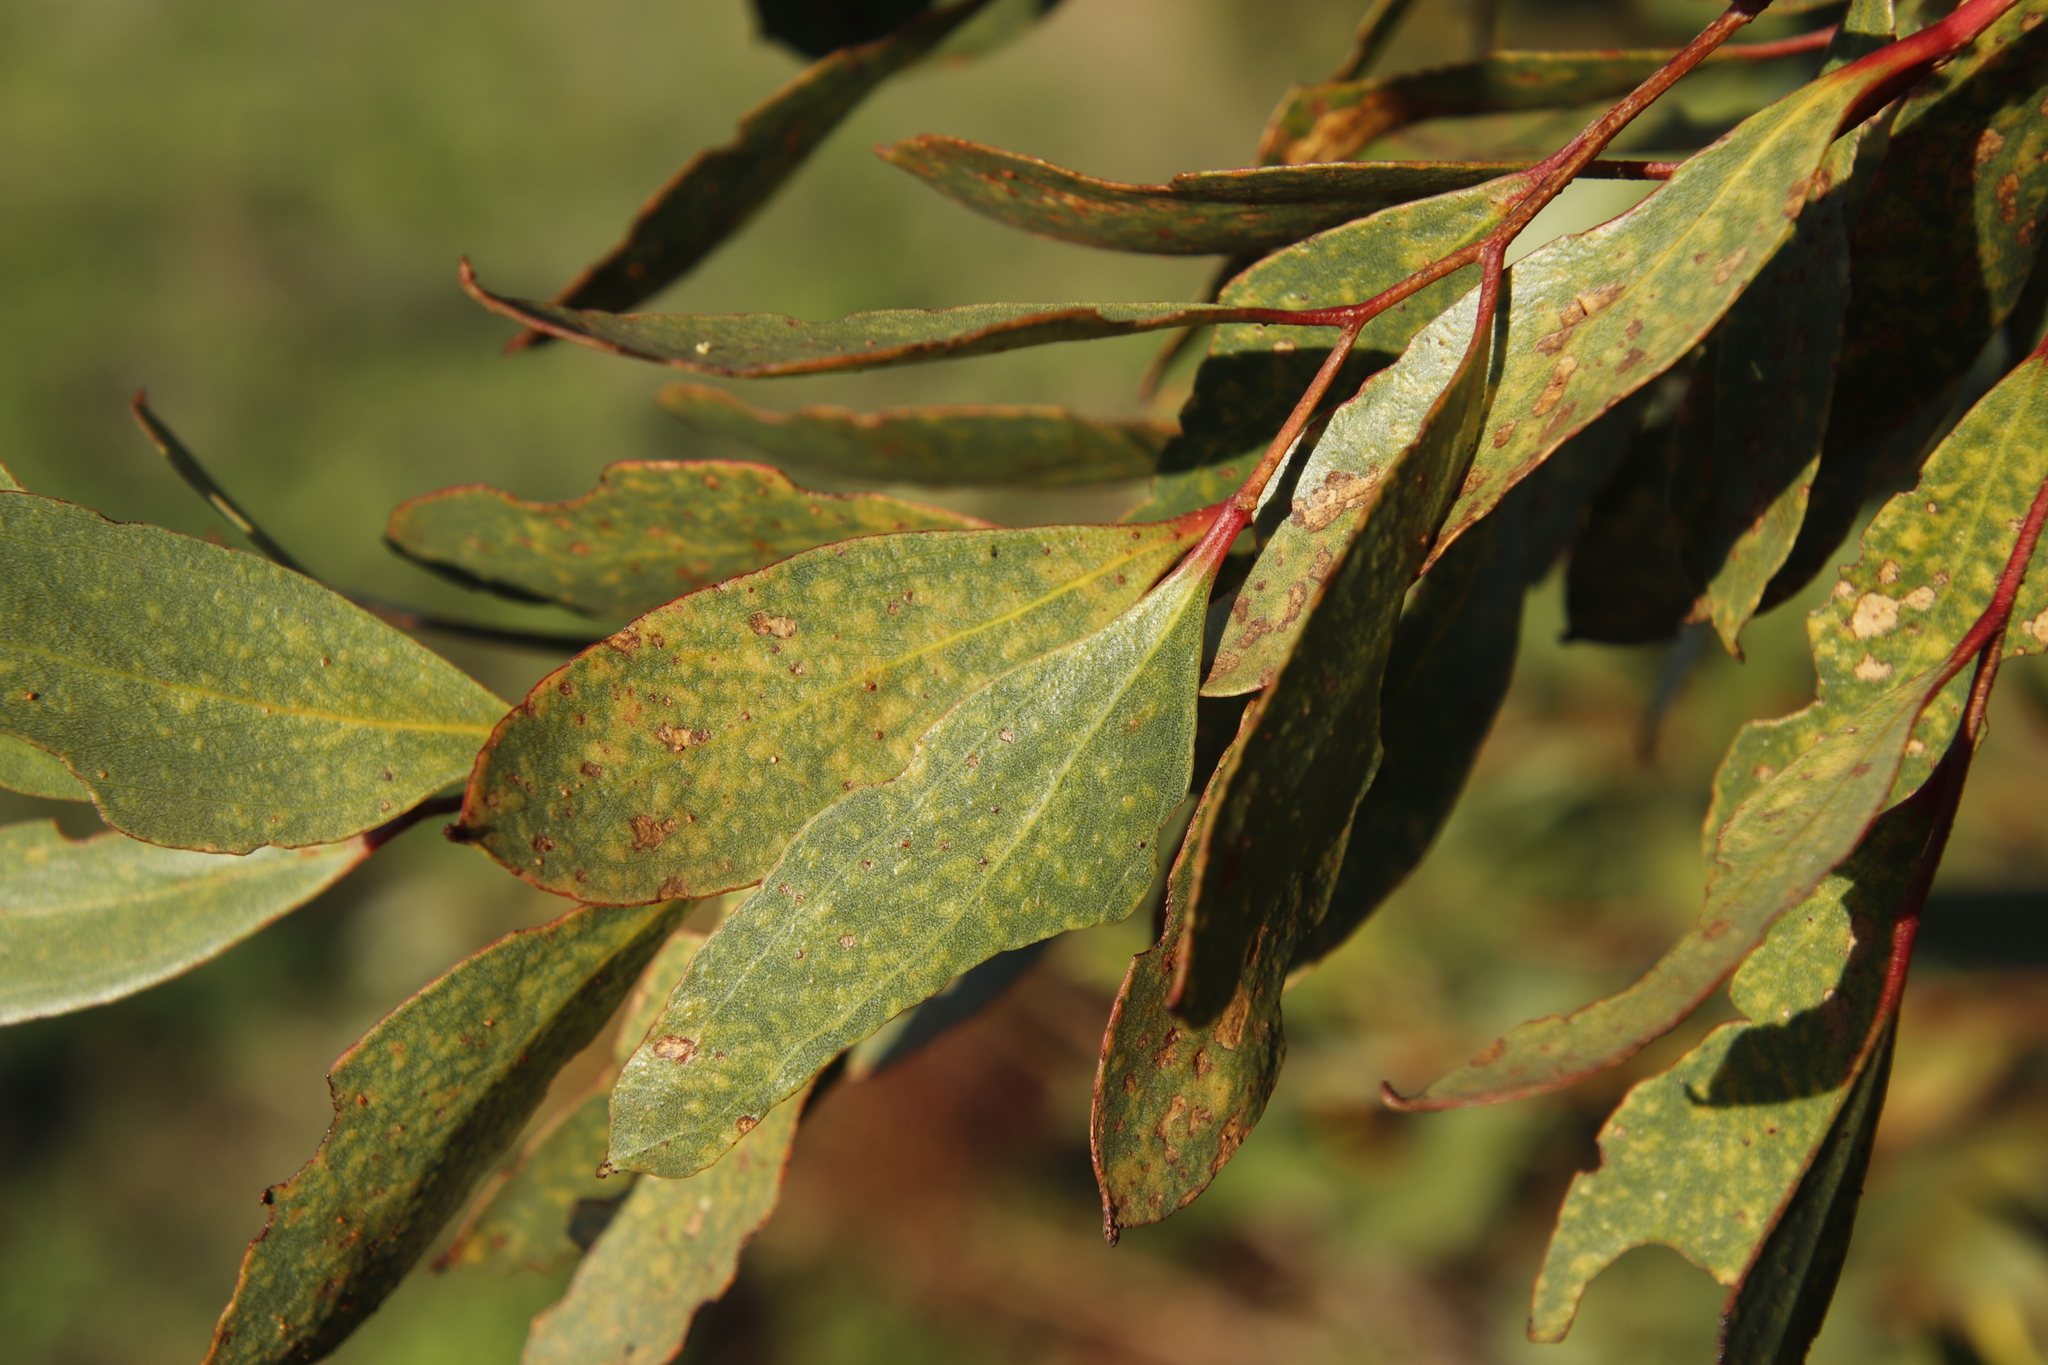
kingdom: Plantae
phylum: Tracheophyta
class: Magnoliopsida
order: Myrtales
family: Myrtaceae
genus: Eucalyptus
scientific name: Eucalyptus conferruminata
